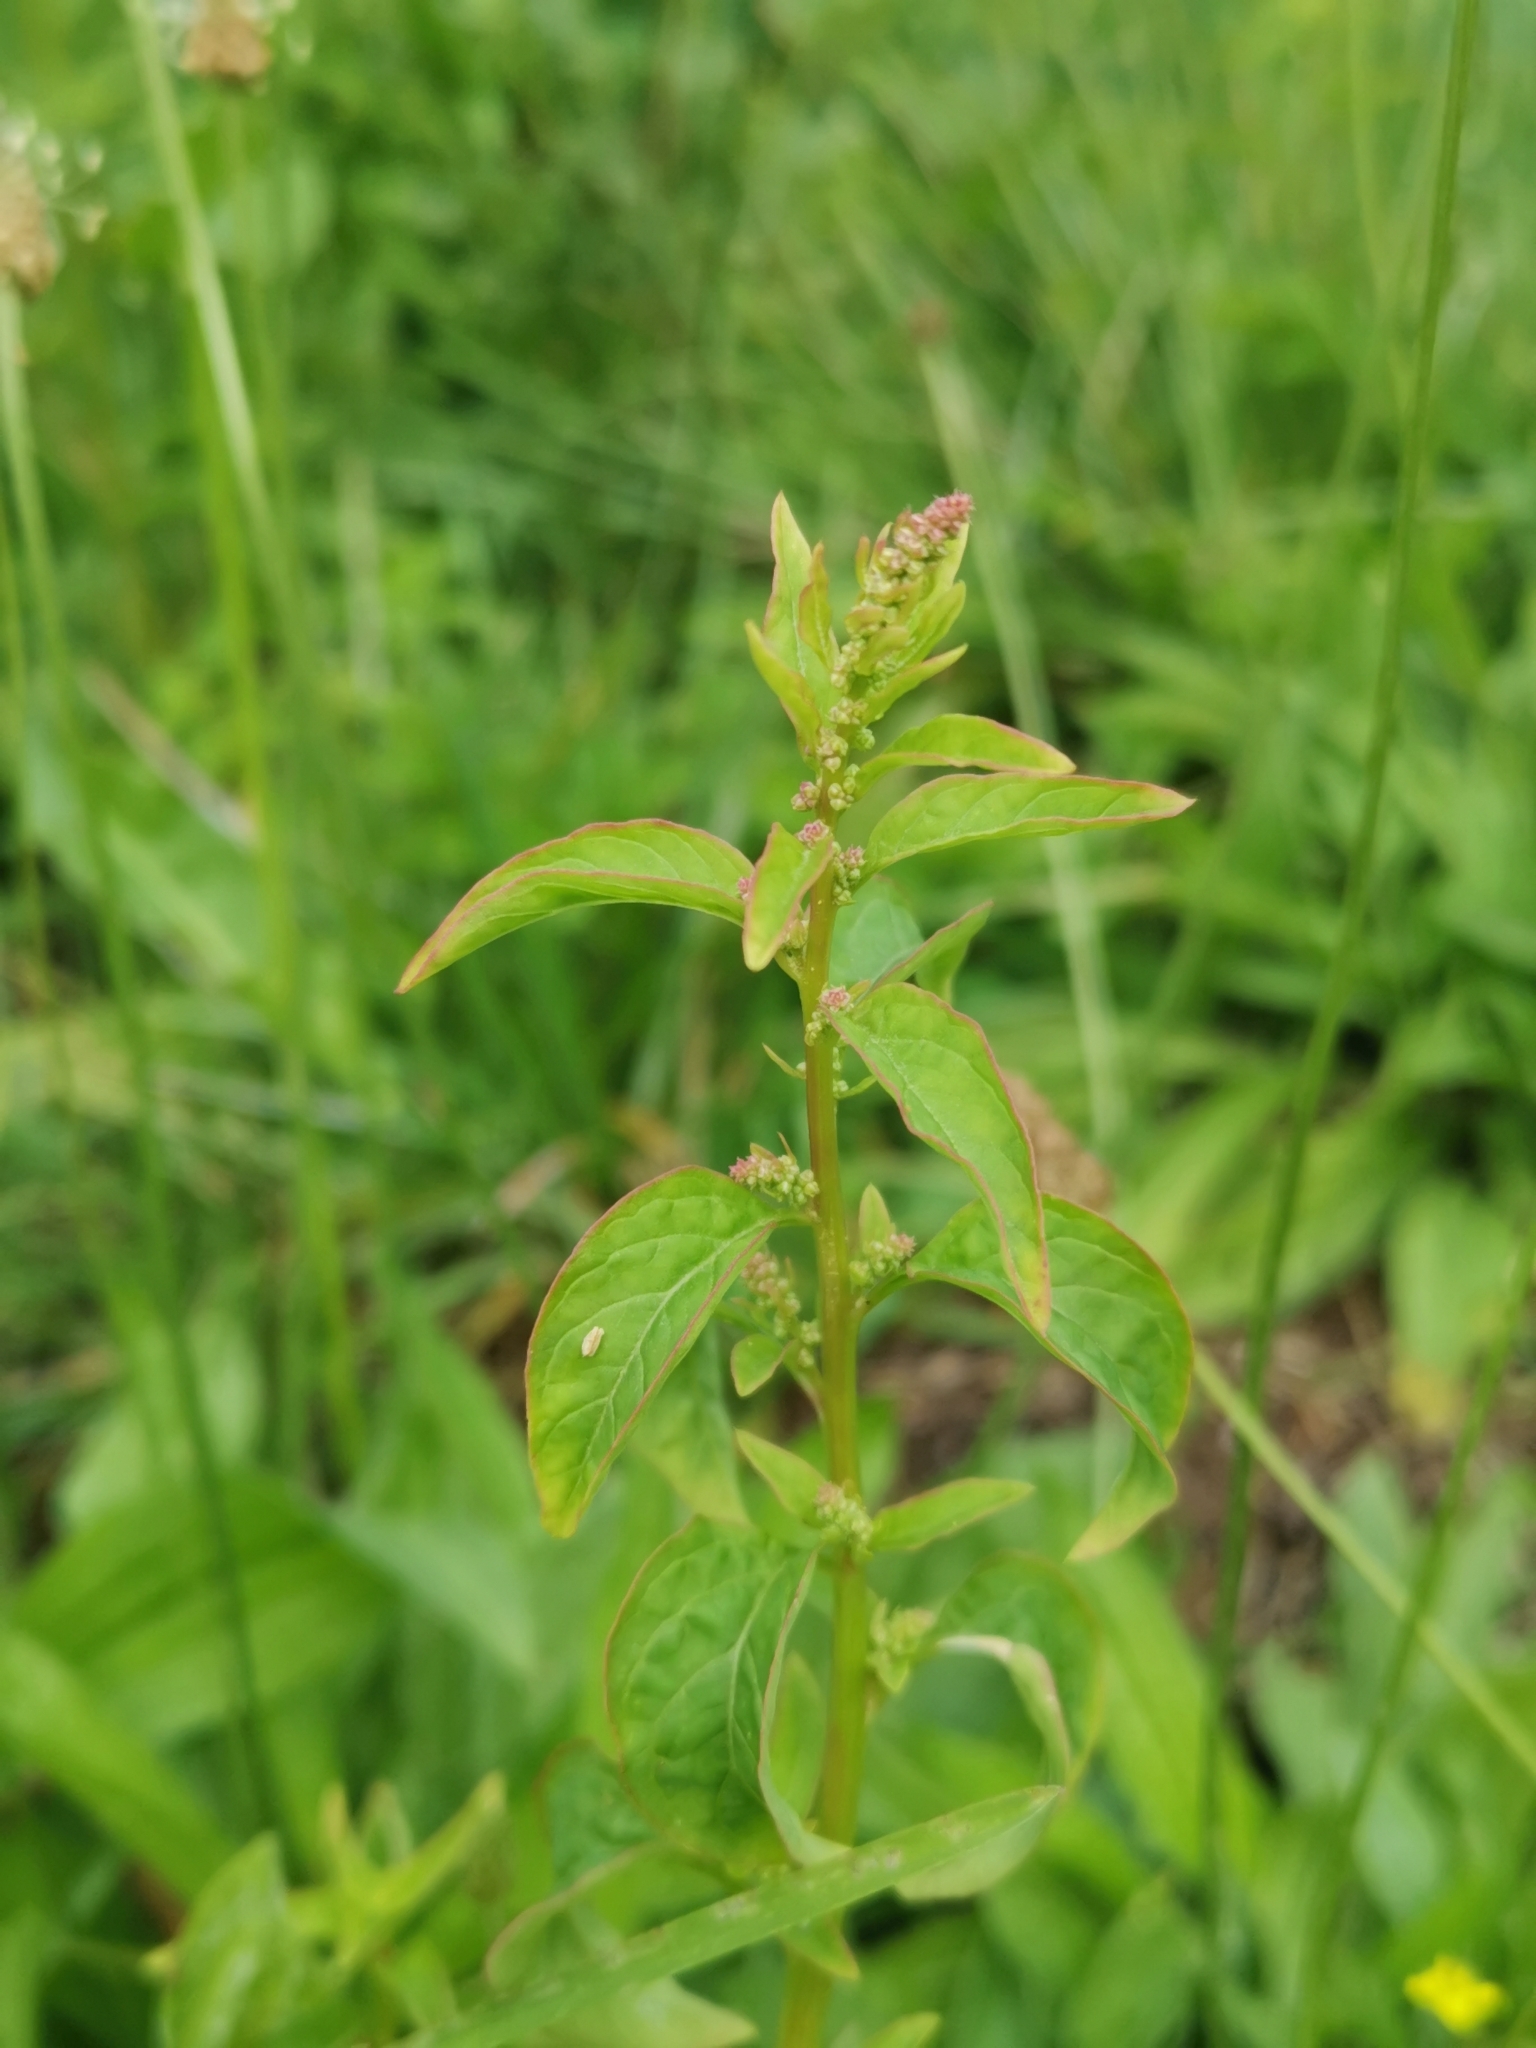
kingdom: Plantae
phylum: Tracheophyta
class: Magnoliopsida
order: Caryophyllales
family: Amaranthaceae
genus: Lipandra
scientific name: Lipandra polysperma
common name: Many-seed goosefoot
